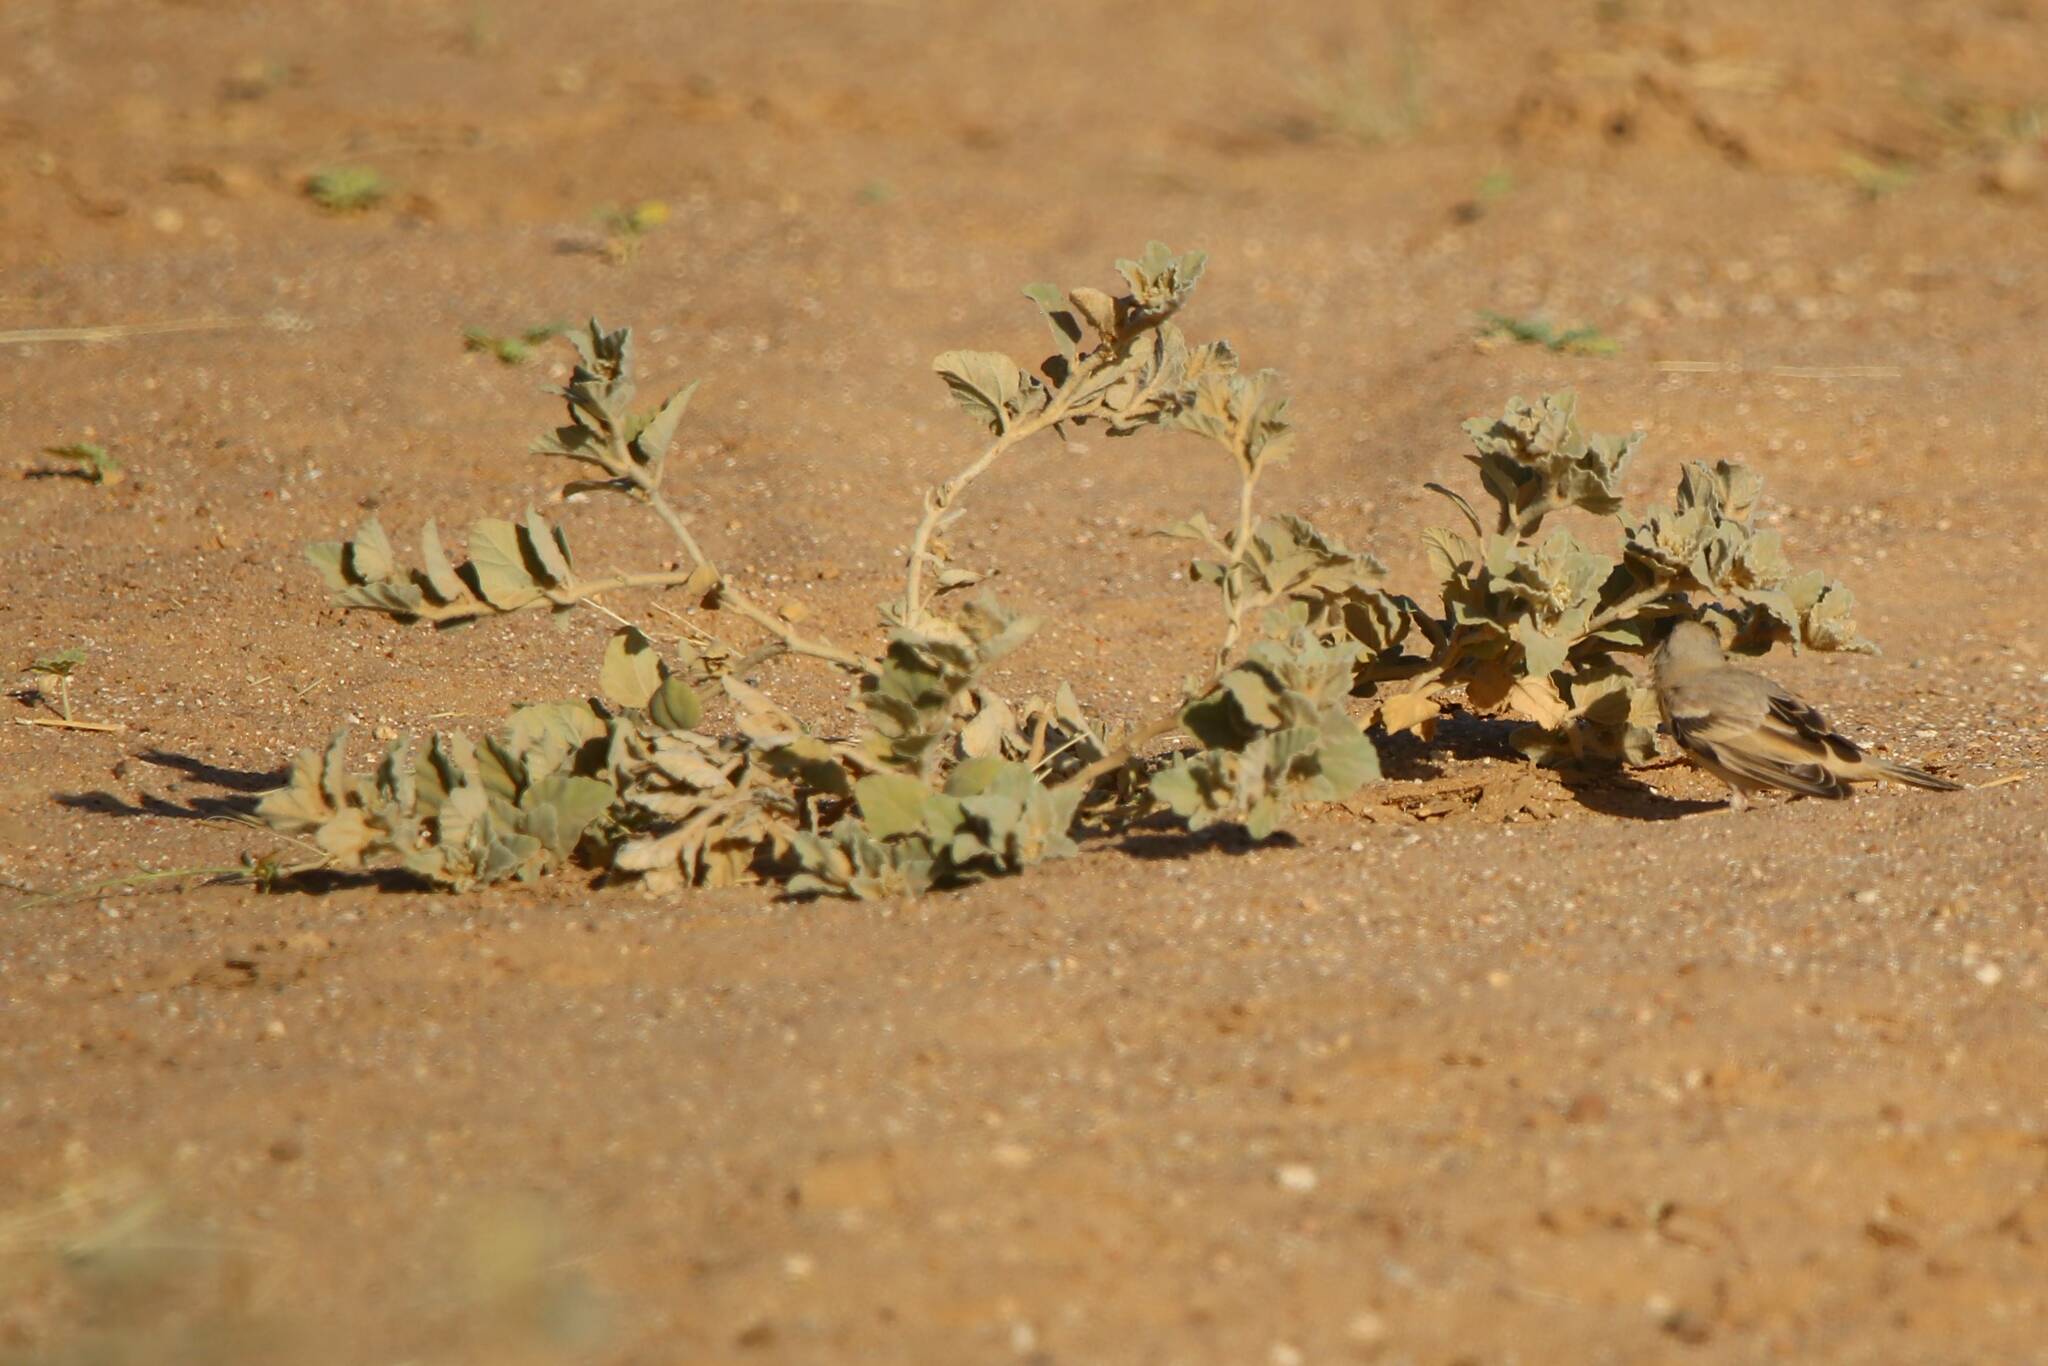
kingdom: Animalia
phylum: Chordata
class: Aves
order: Passeriformes
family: Passeridae
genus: Passer
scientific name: Passer simplex
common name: Desert sparrow
